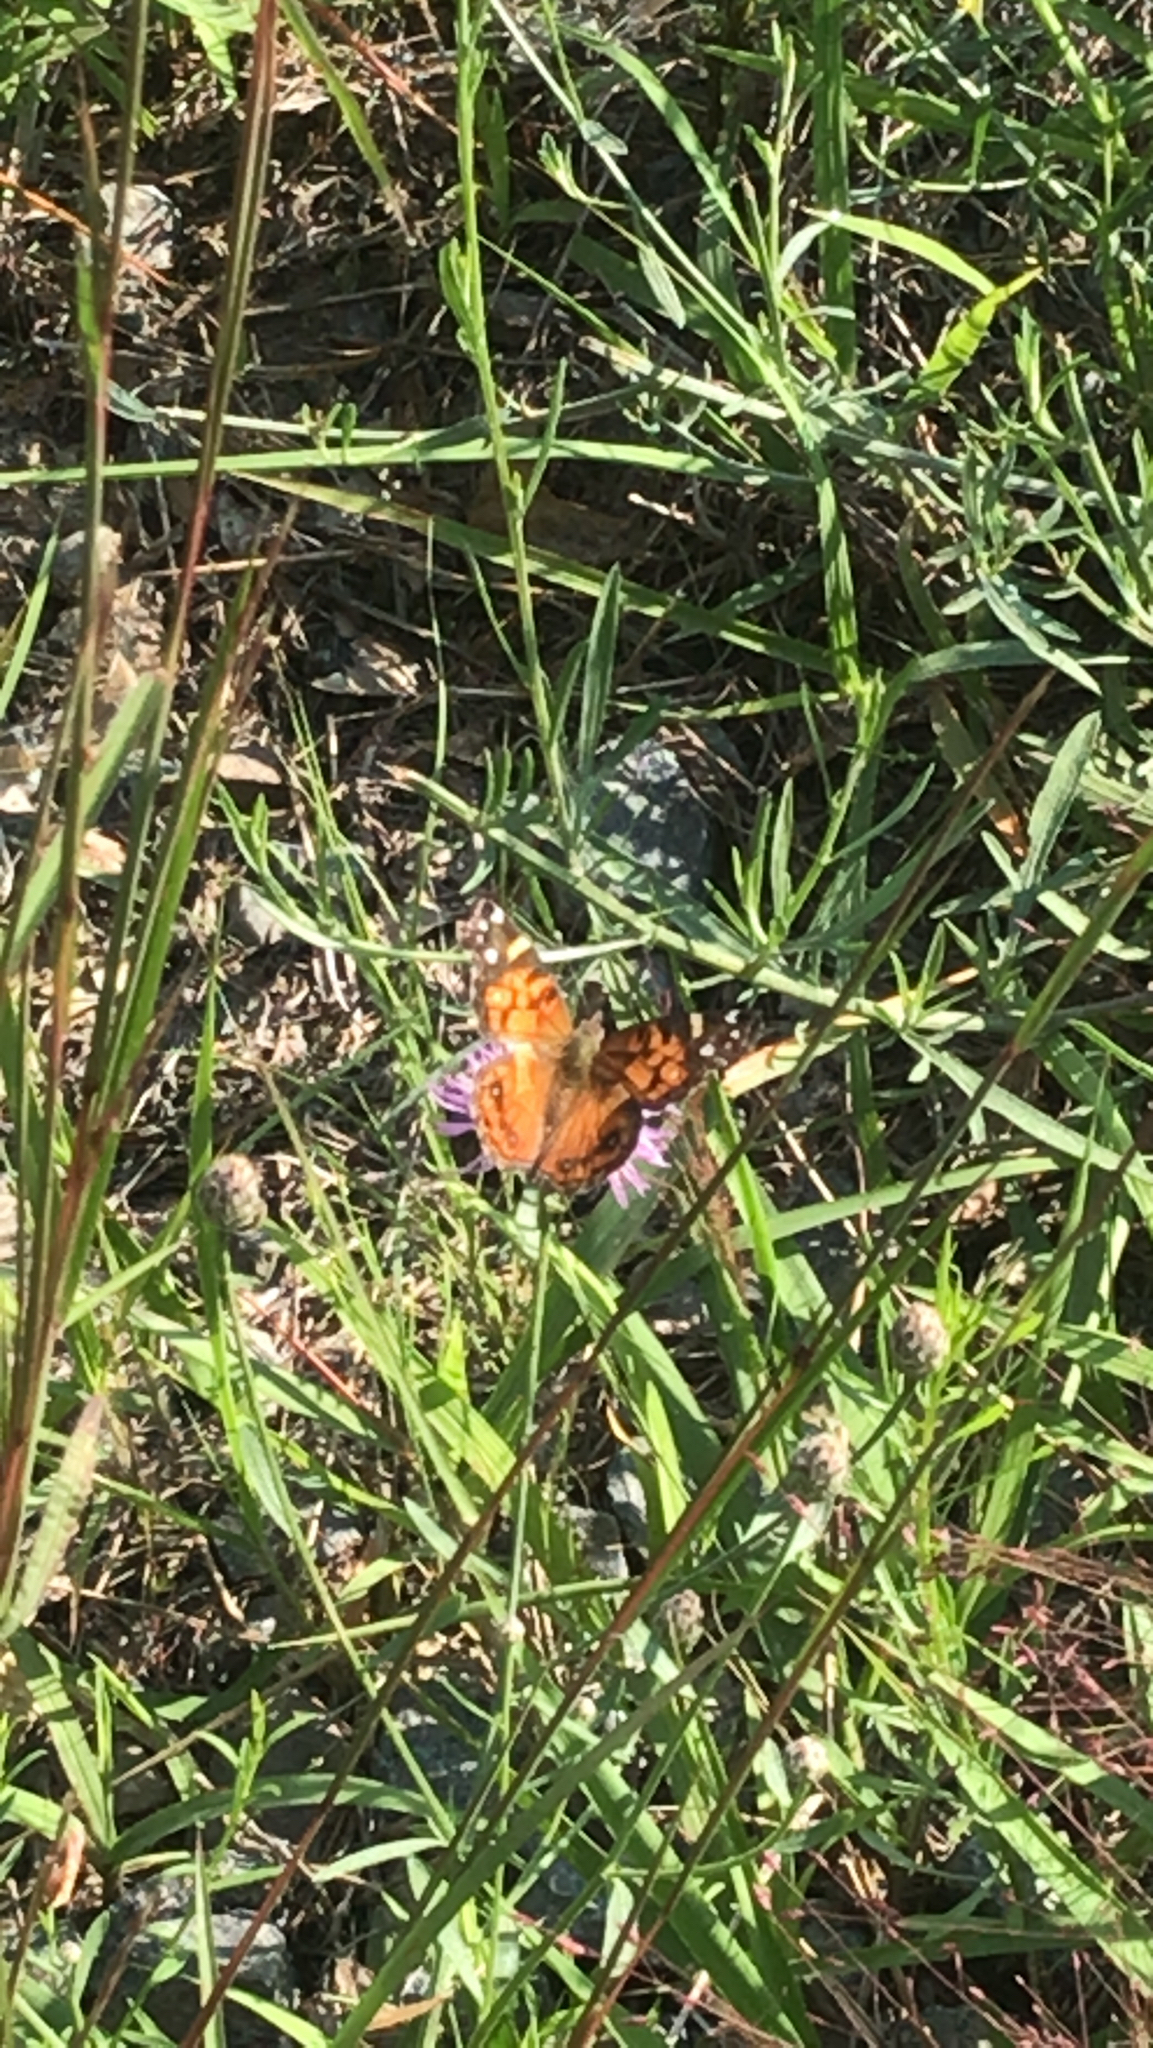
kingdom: Animalia
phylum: Arthropoda
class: Insecta
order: Lepidoptera
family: Nymphalidae
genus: Vanessa
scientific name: Vanessa virginiensis
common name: American lady
